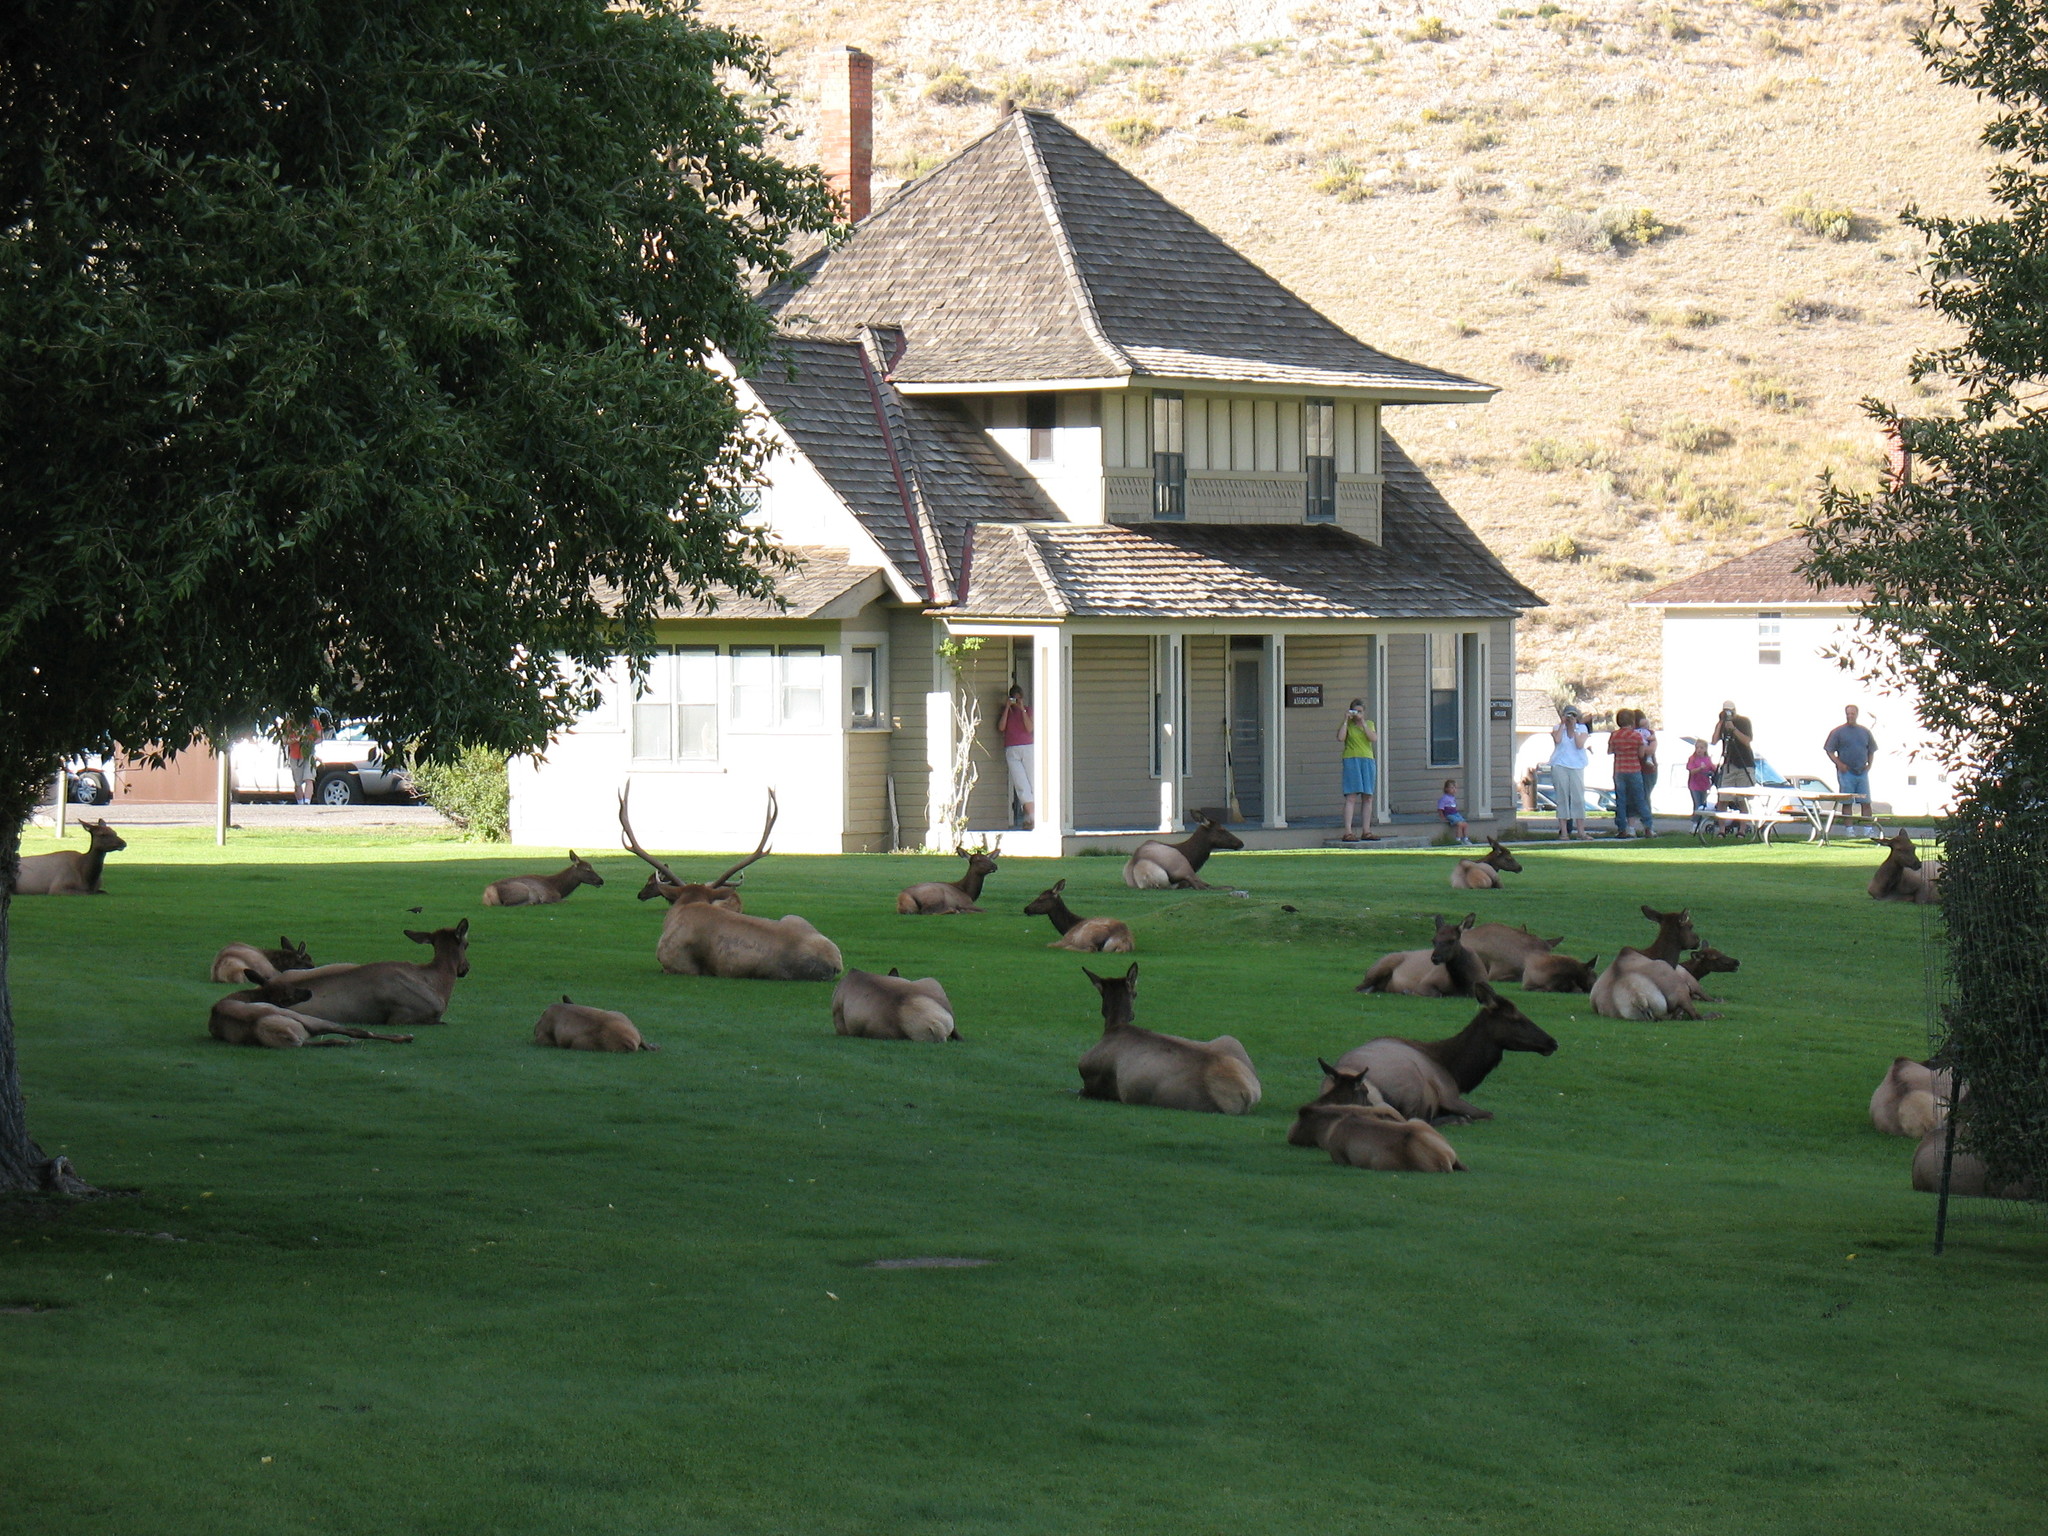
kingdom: Animalia
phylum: Chordata
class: Mammalia
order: Artiodactyla
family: Cervidae
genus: Cervus
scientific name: Cervus elaphus
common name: Red deer
